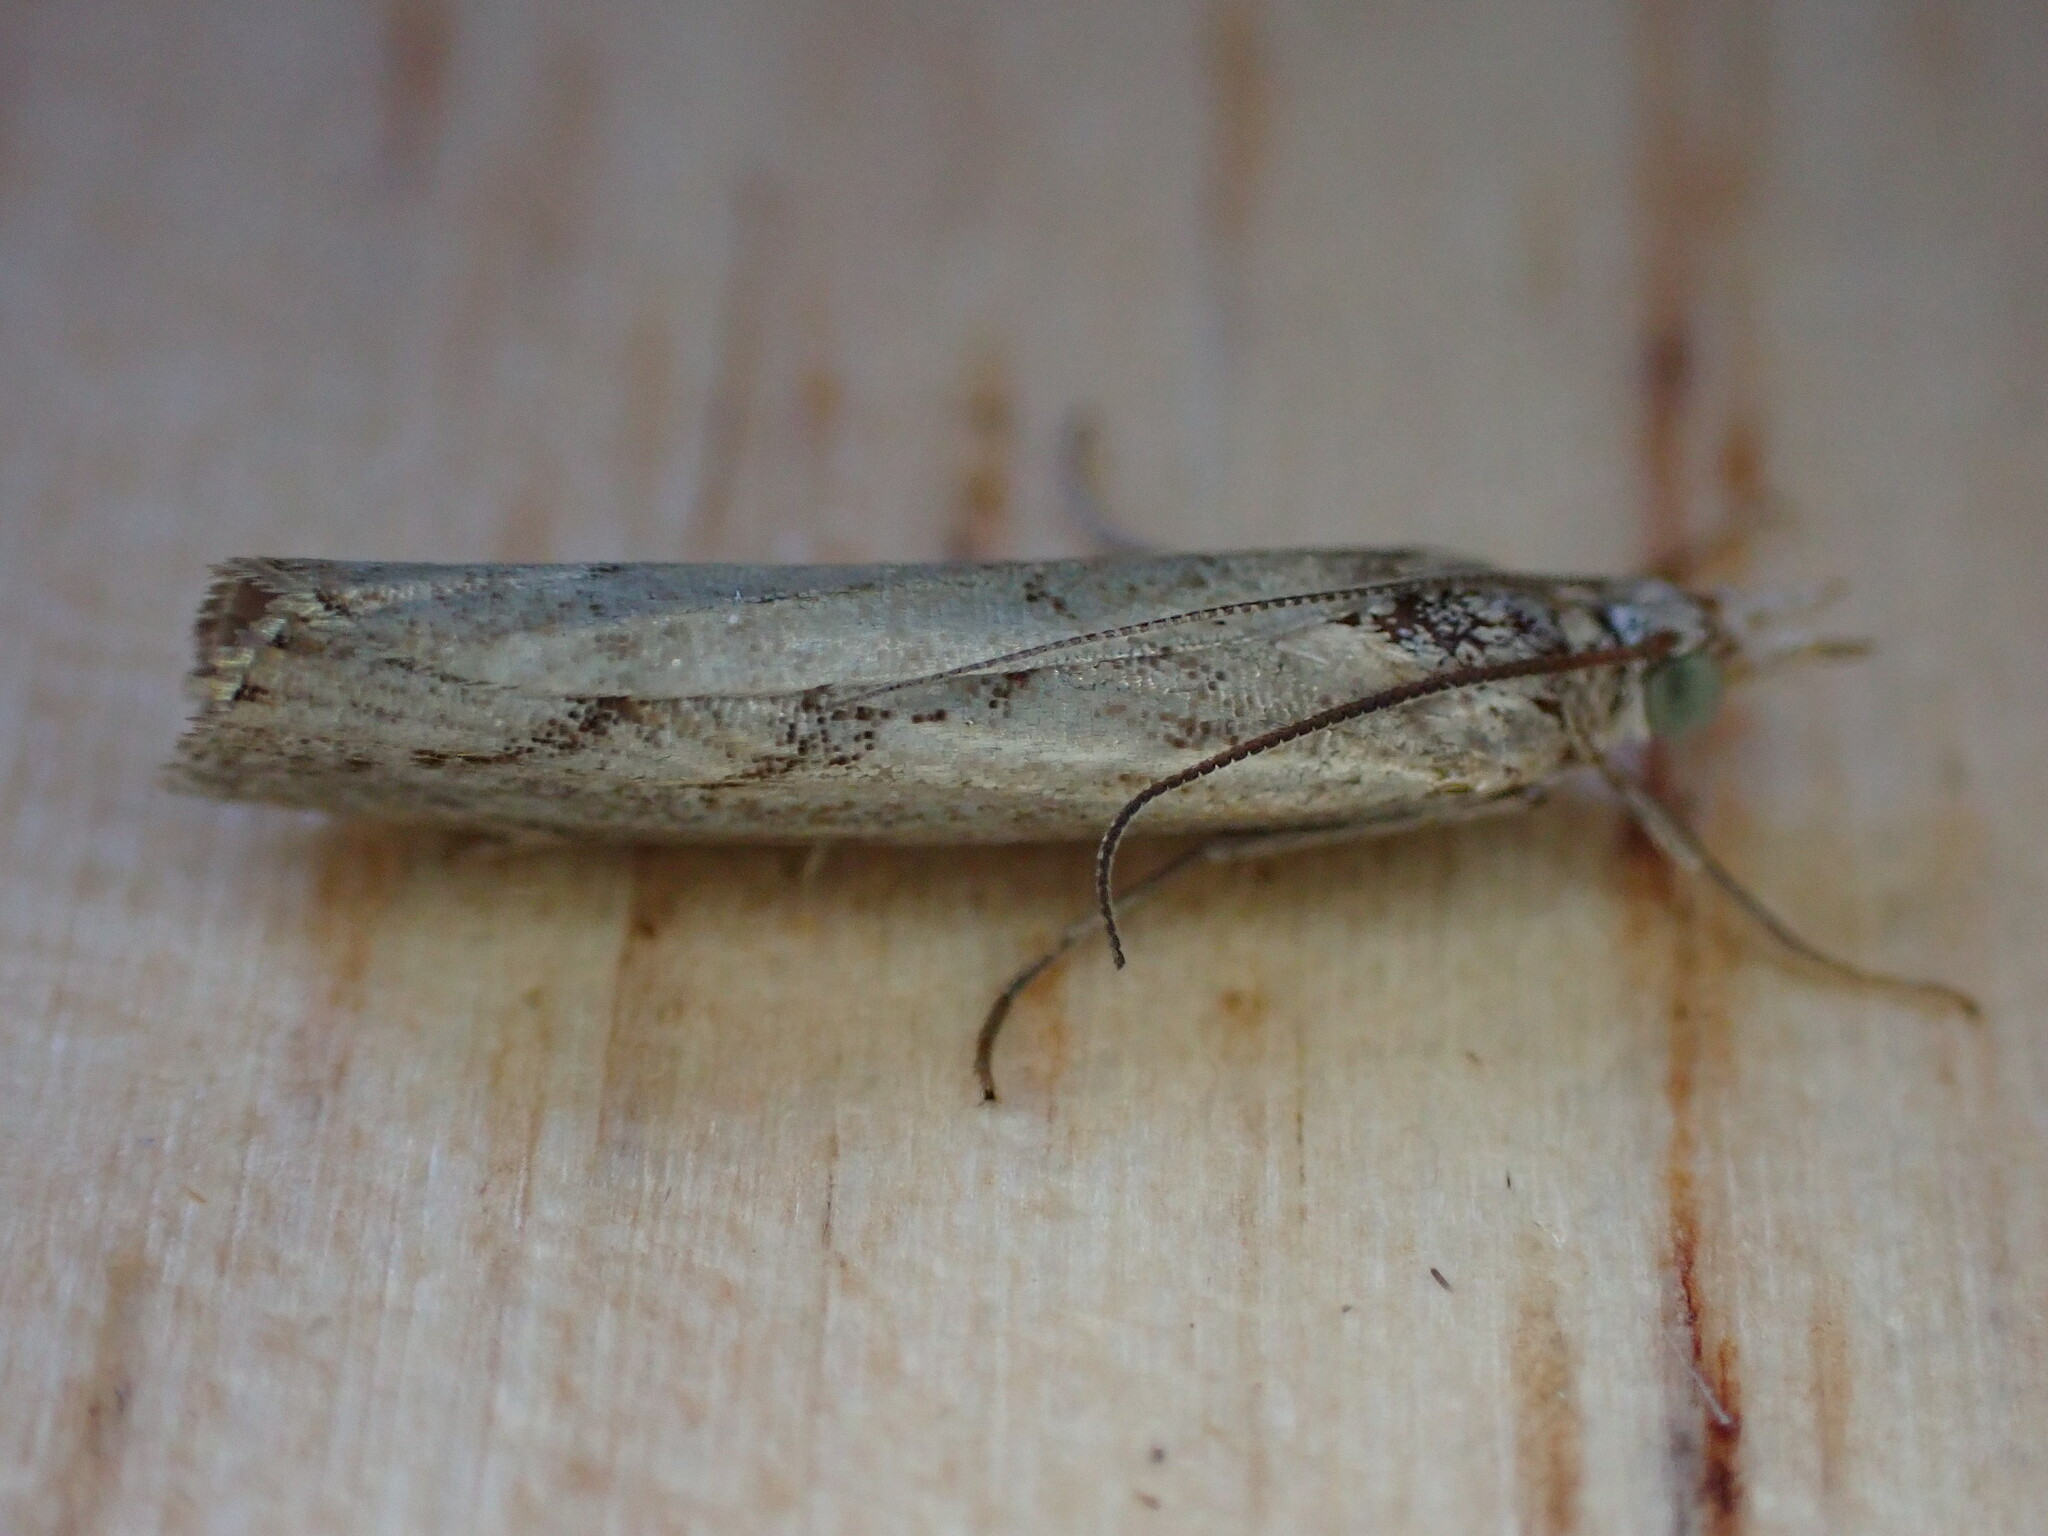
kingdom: Animalia
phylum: Arthropoda
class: Insecta
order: Lepidoptera
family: Crambidae
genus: Agriphila
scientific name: Agriphila geniculea
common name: Elbow-stripe grass-veneer
